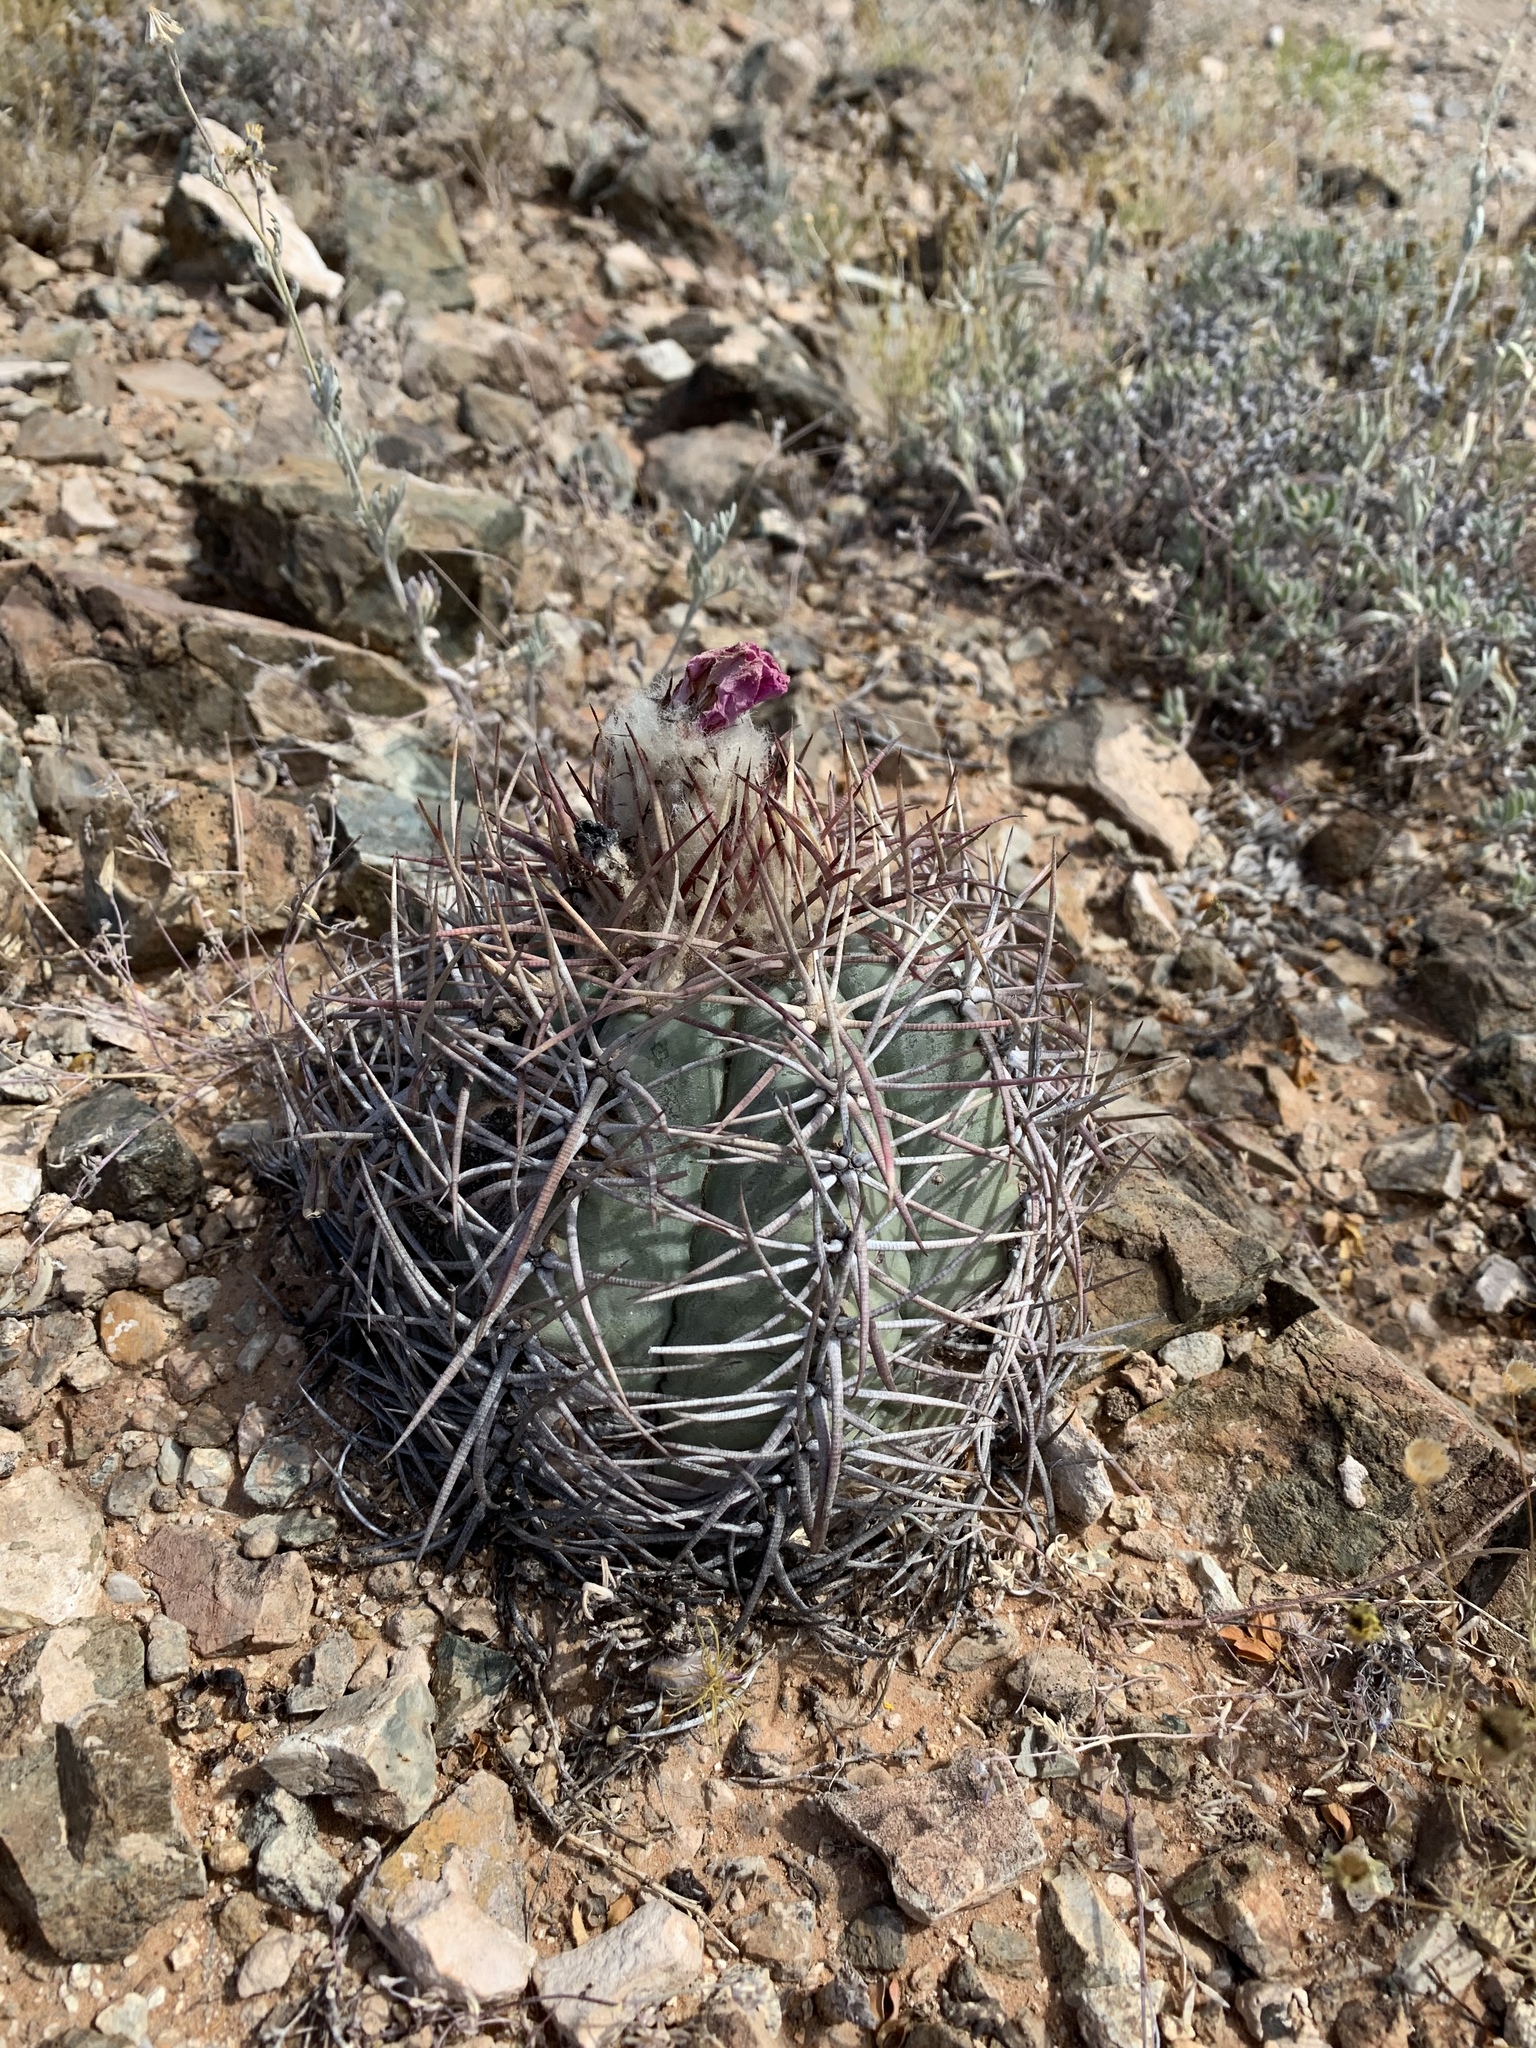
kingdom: Plantae
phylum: Tracheophyta
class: Magnoliopsida
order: Caryophyllales
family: Cactaceae
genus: Echinocactus
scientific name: Echinocactus horizonthalonius
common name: Devilshead
